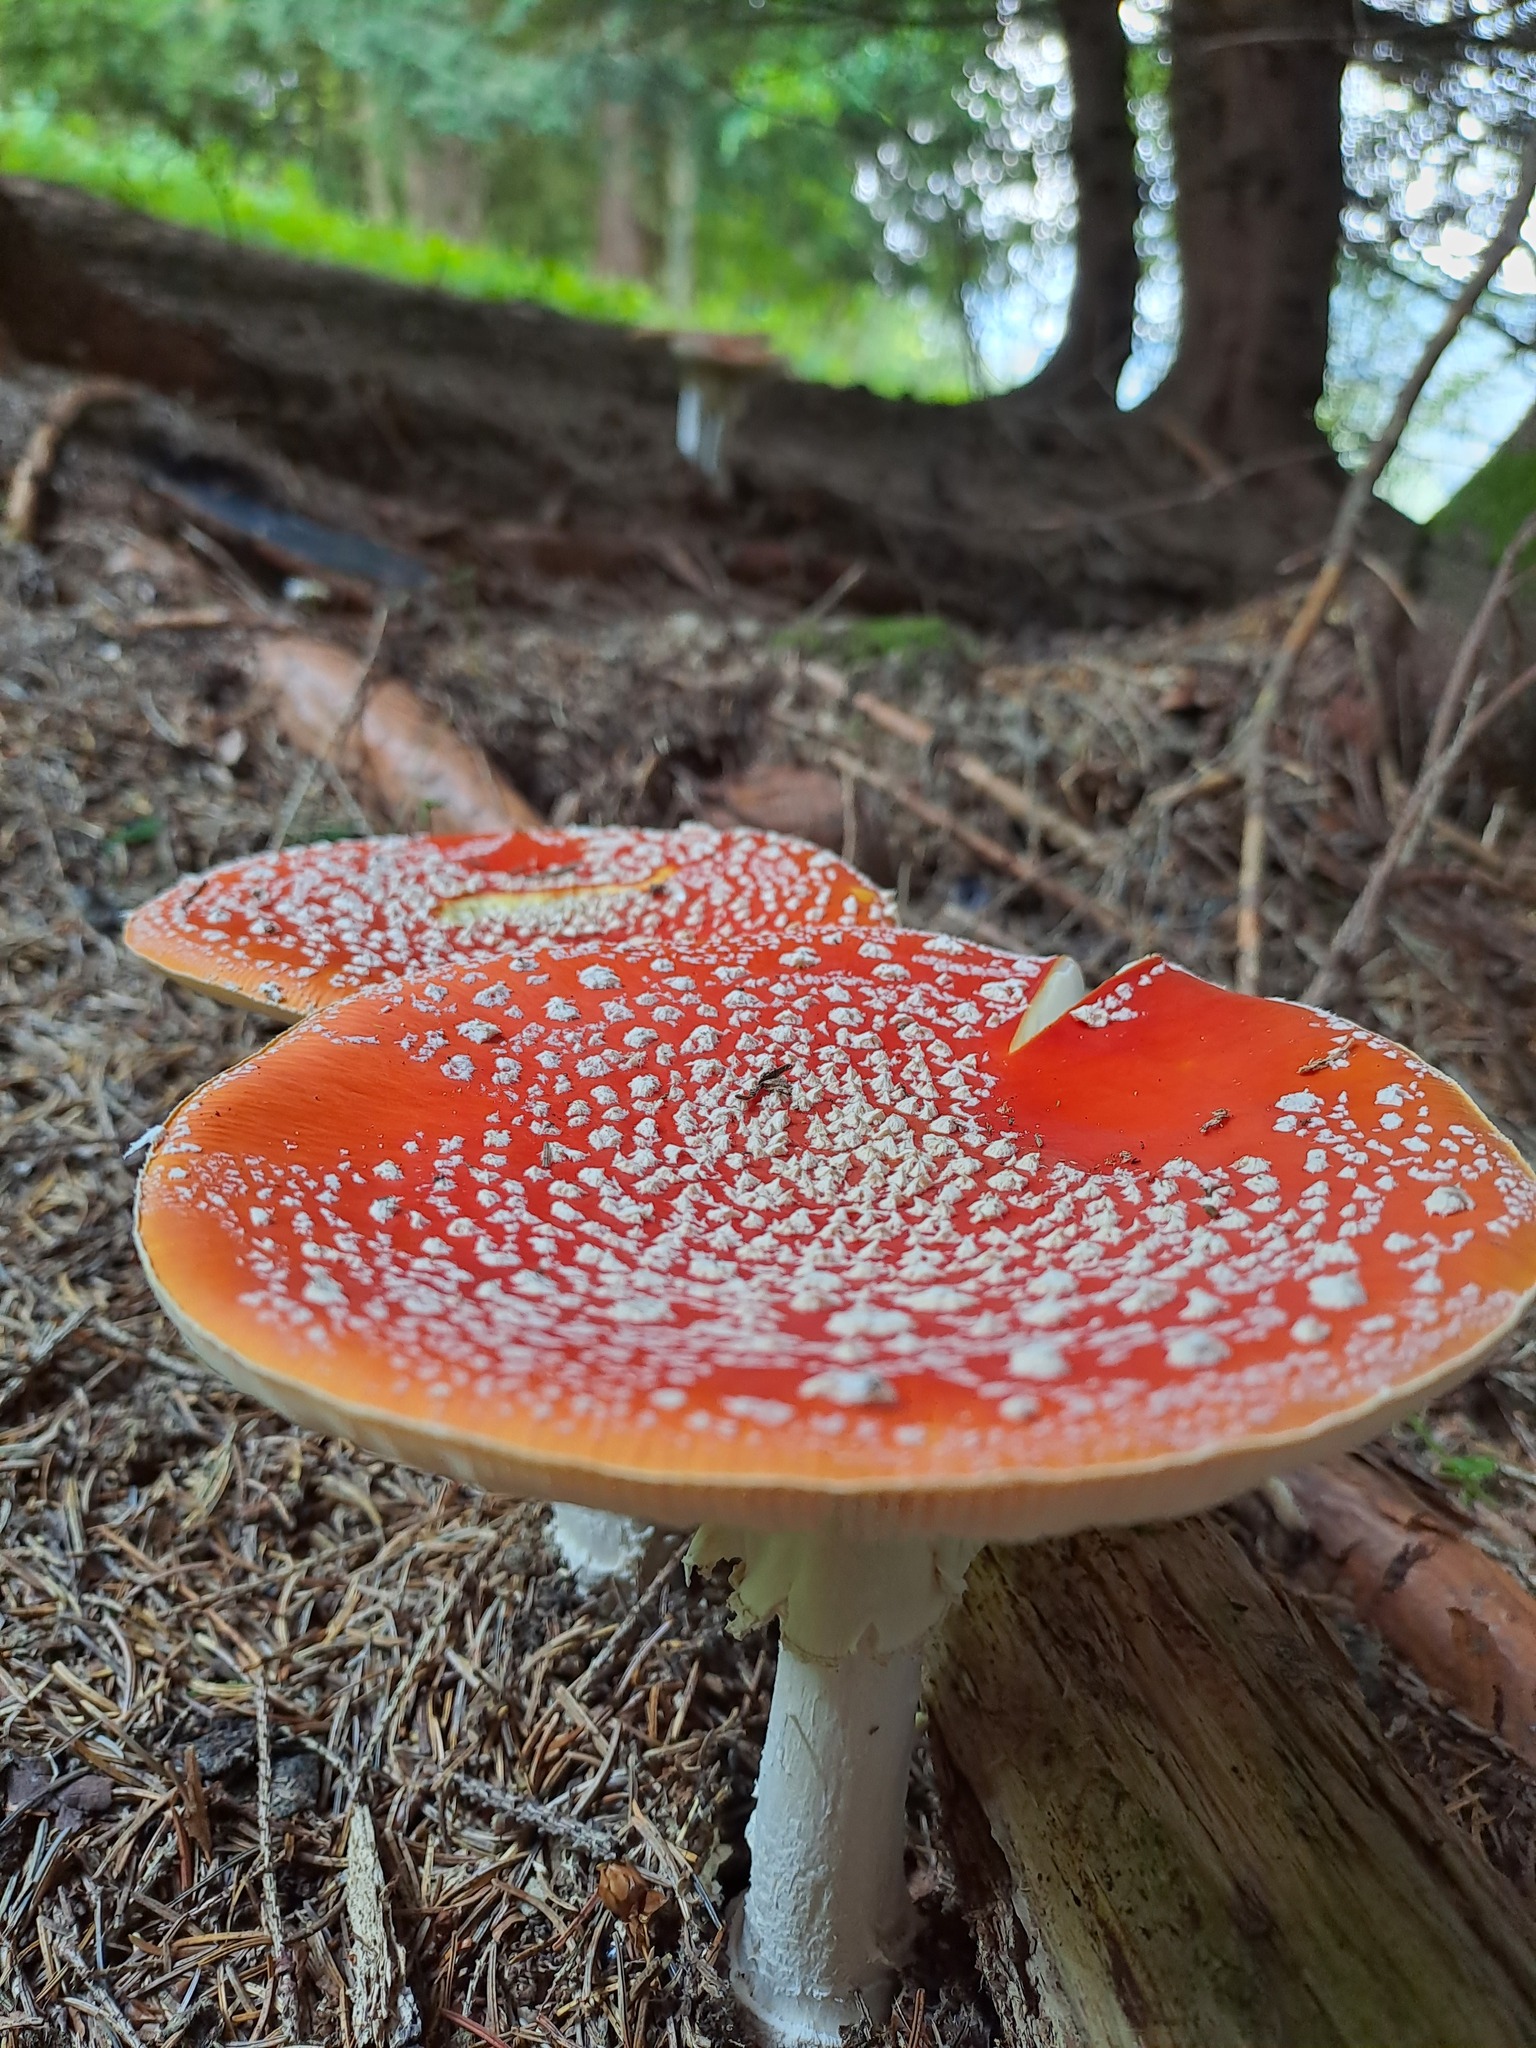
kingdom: Fungi
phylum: Basidiomycota
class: Agaricomycetes
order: Agaricales
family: Amanitaceae
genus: Amanita
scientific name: Amanita muscaria
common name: Fly agaric
